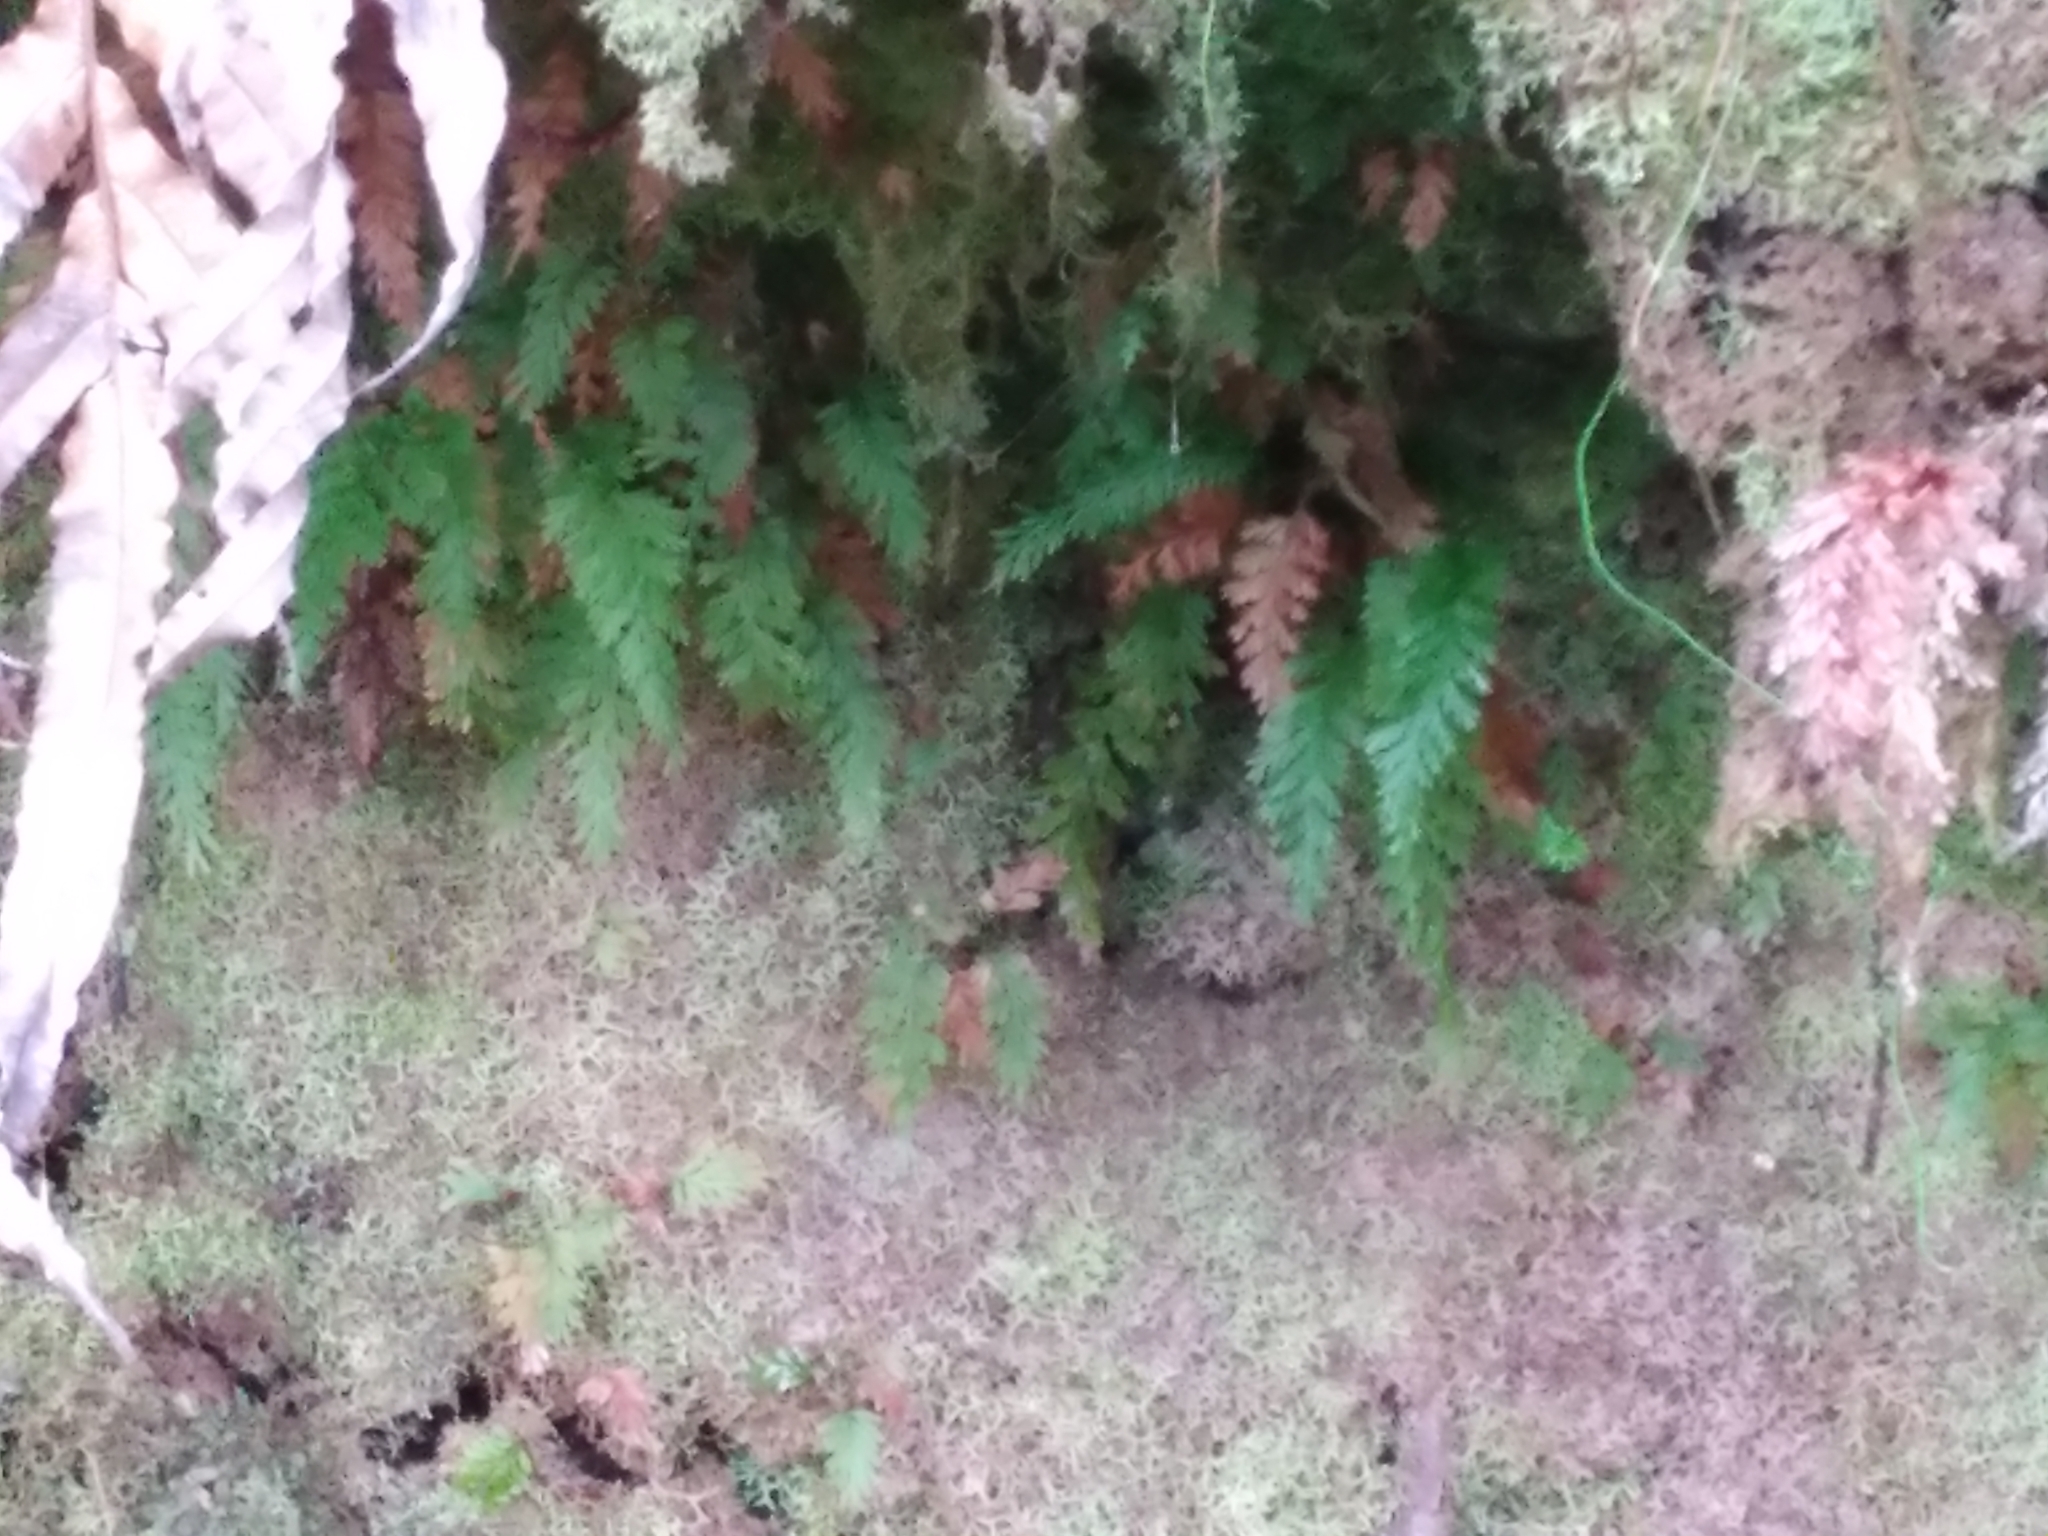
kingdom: Plantae
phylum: Tracheophyta
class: Polypodiopsida
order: Hymenophyllales
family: Hymenophyllaceae
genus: Abrodictyum
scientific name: Abrodictyum strictum
